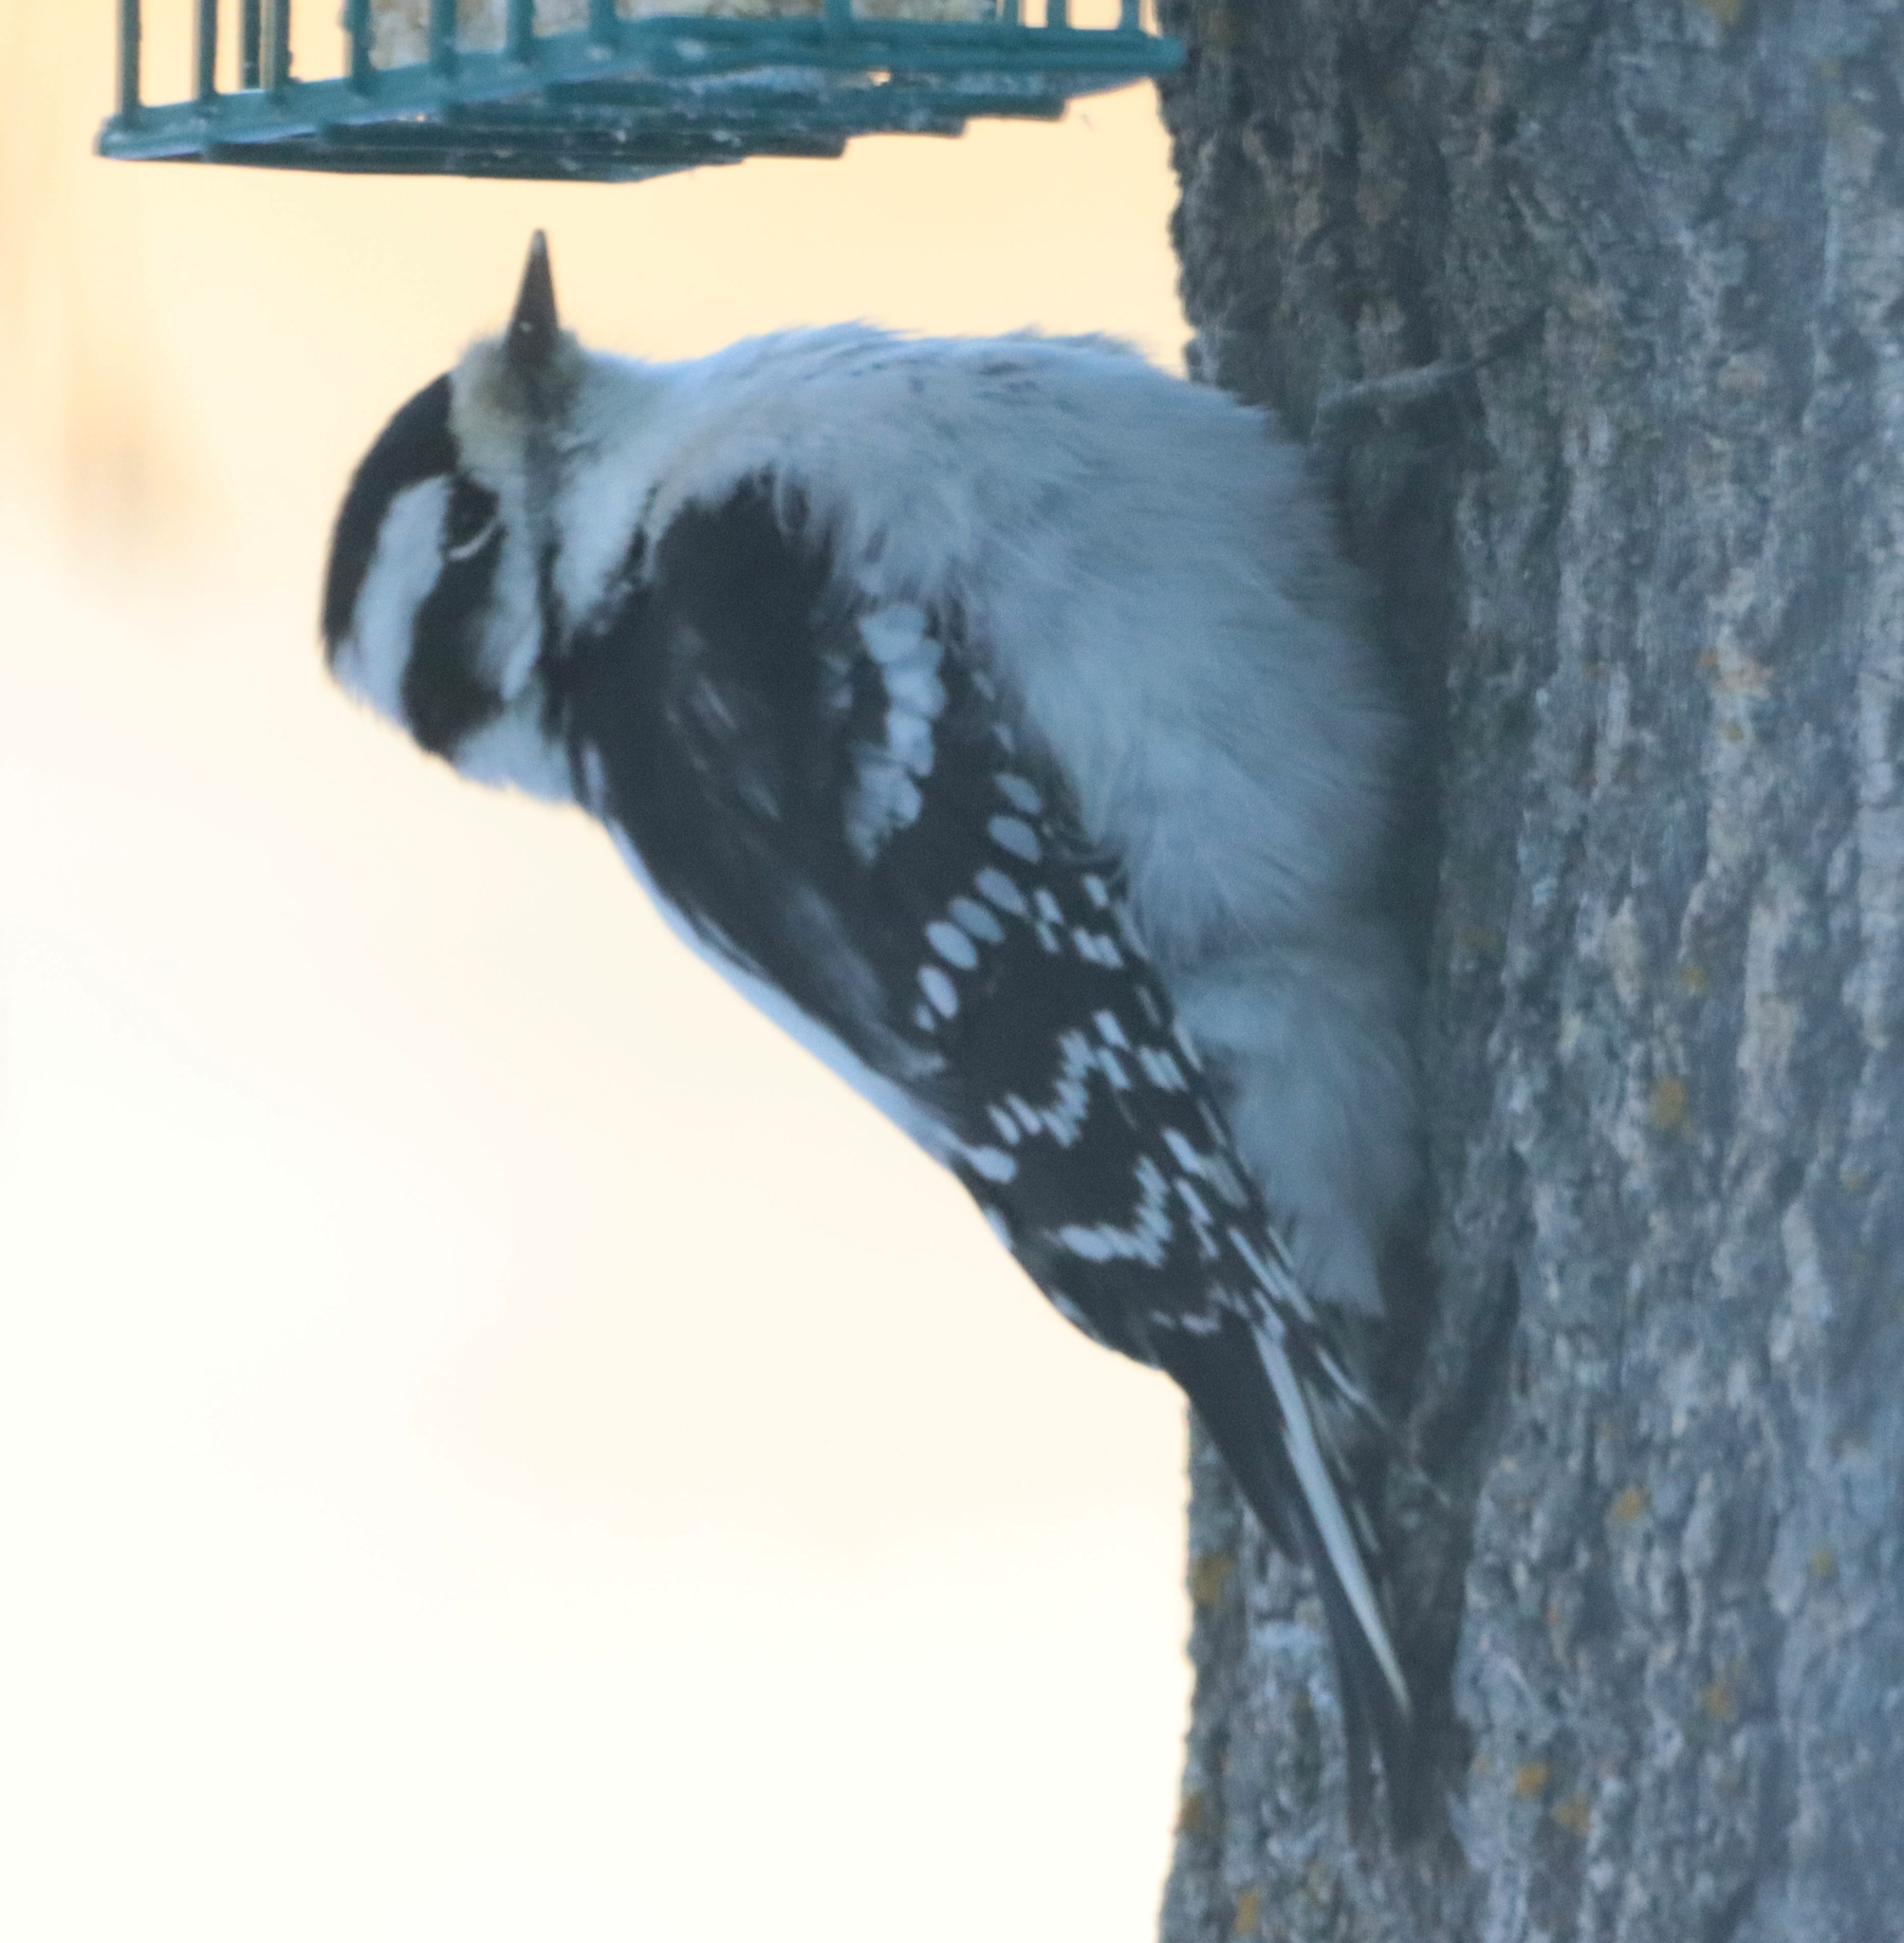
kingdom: Animalia
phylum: Chordata
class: Aves
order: Piciformes
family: Picidae
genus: Dryobates
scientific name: Dryobates pubescens
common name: Downy woodpecker
